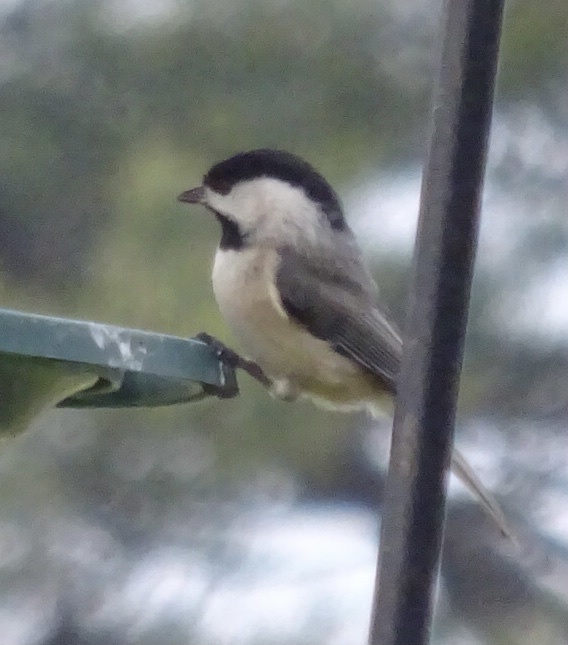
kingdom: Animalia
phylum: Chordata
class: Aves
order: Passeriformes
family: Paridae
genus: Poecile
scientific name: Poecile carolinensis
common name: Carolina chickadee
